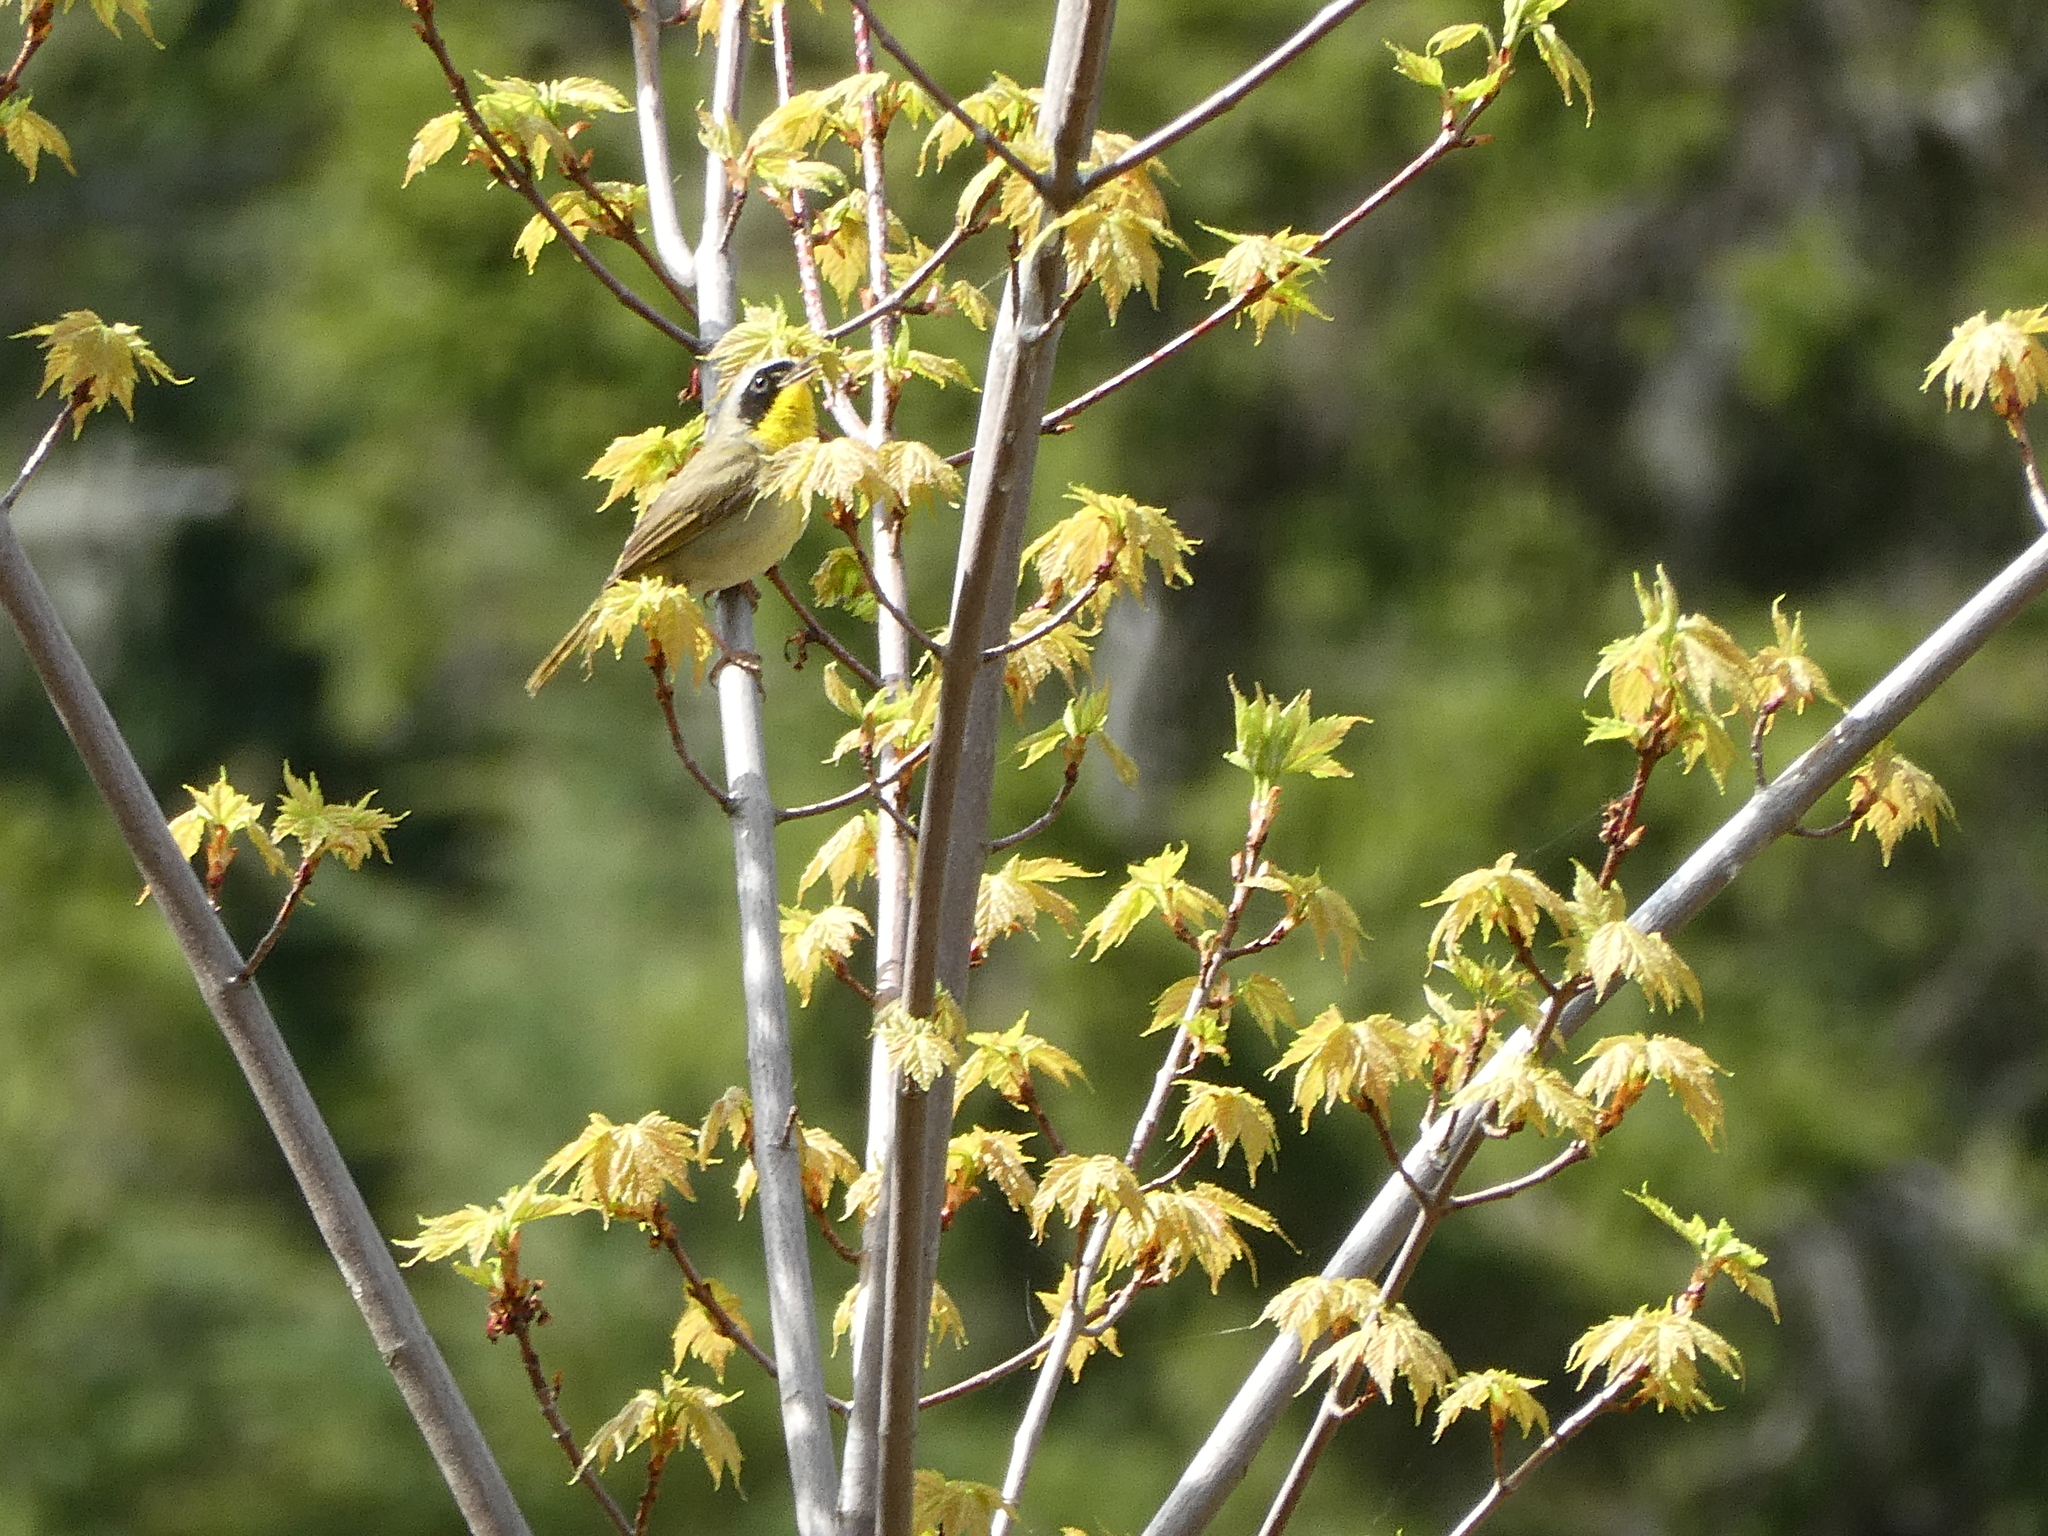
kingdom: Animalia
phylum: Chordata
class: Aves
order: Passeriformes
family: Parulidae
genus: Geothlypis
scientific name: Geothlypis trichas
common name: Common yellowthroat
